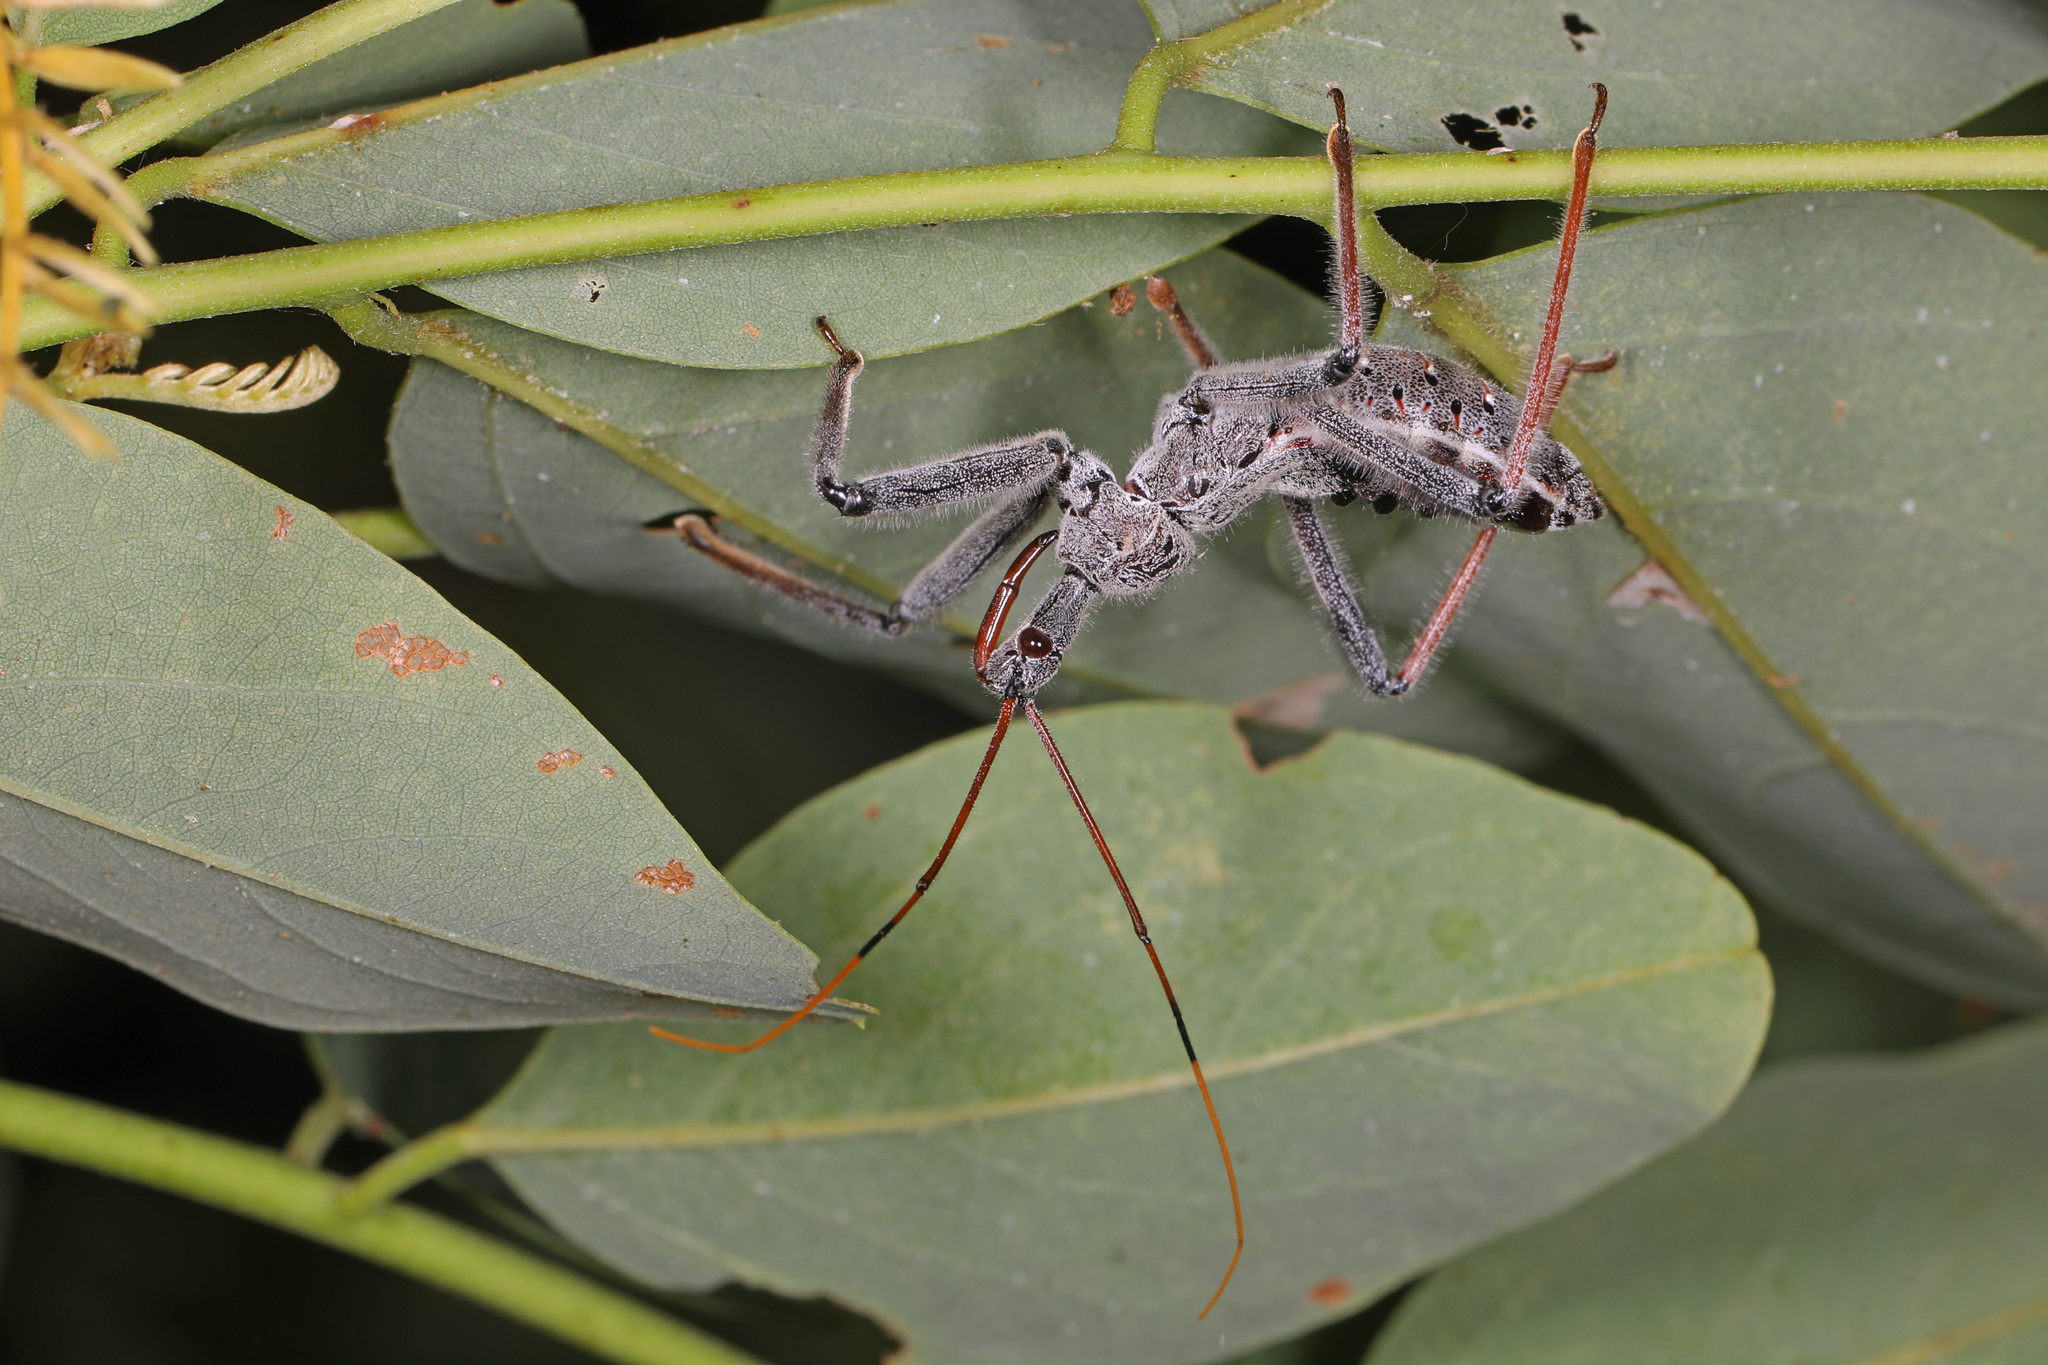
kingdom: Animalia
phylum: Arthropoda
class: Insecta
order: Hemiptera
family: Reduviidae
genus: Arilus
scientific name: Arilus cristatus
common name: North american wheel bug
